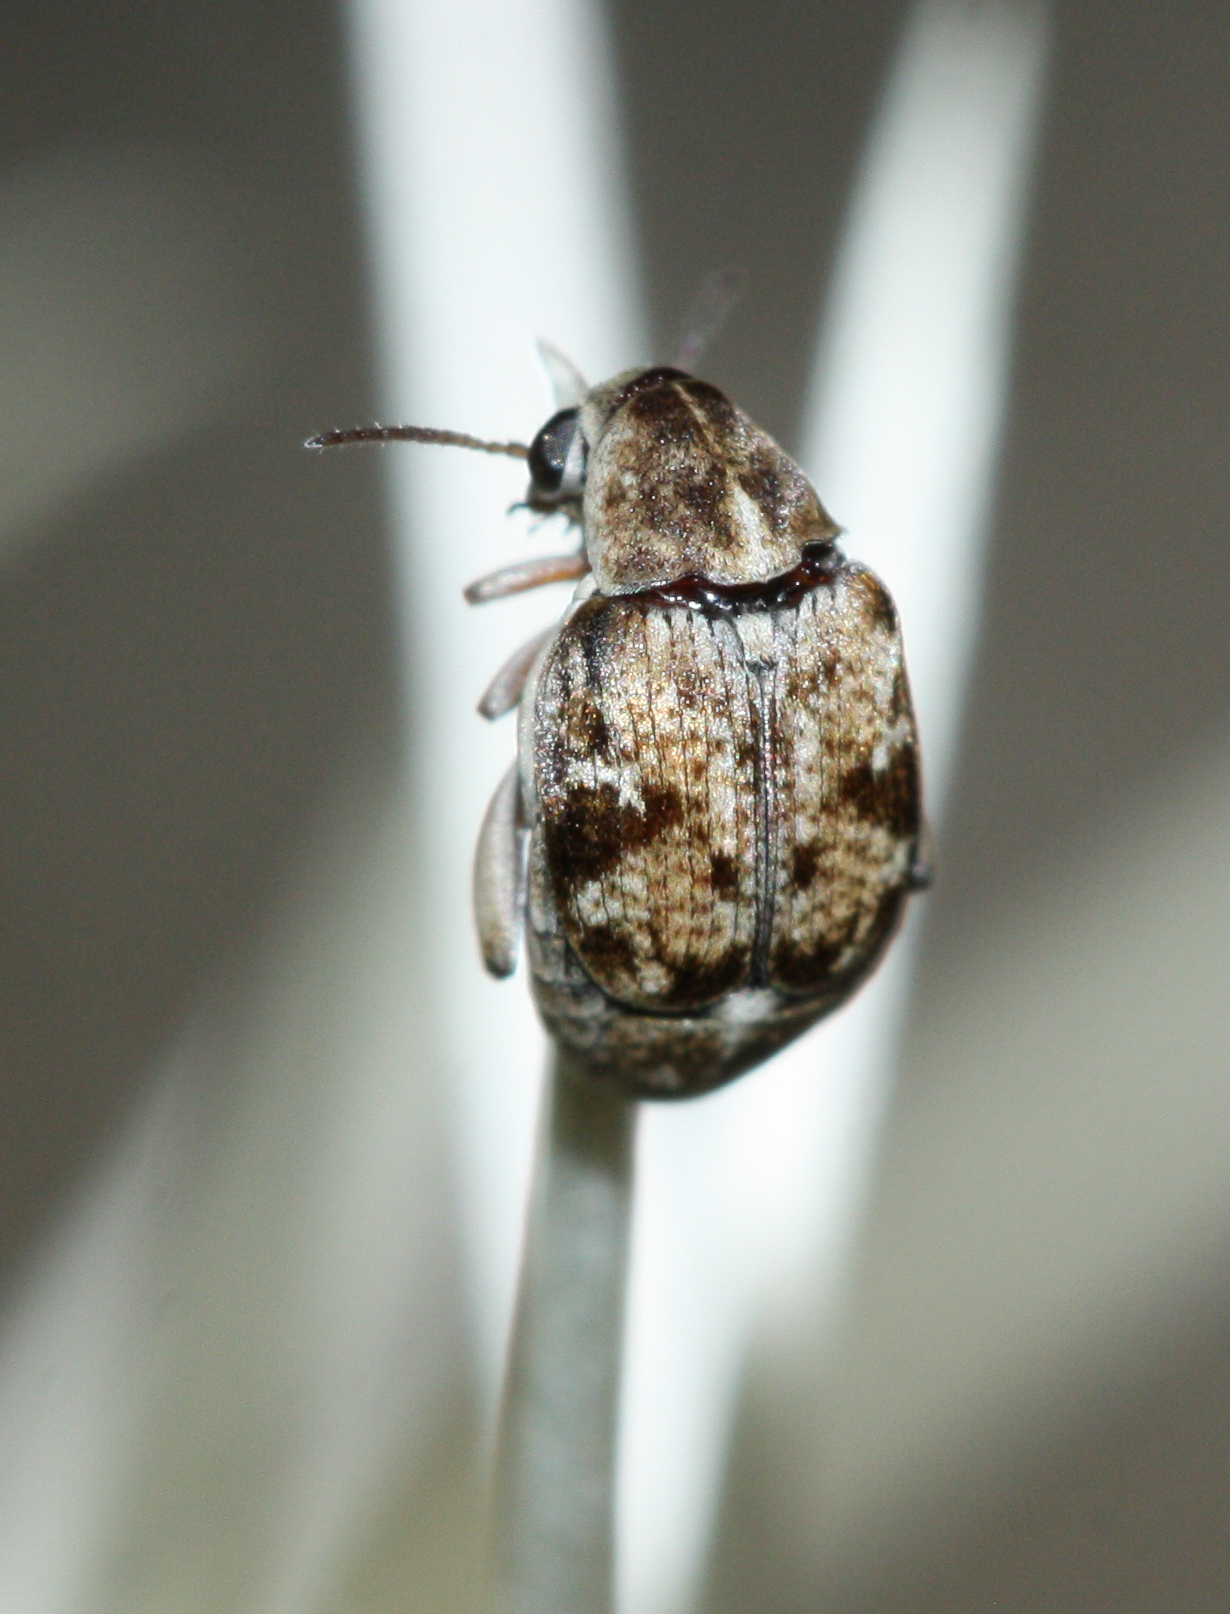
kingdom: Animalia
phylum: Arthropoda
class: Insecta
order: Coleoptera
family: Chrysomelidae
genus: Algarobius
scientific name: Algarobius prosopis
